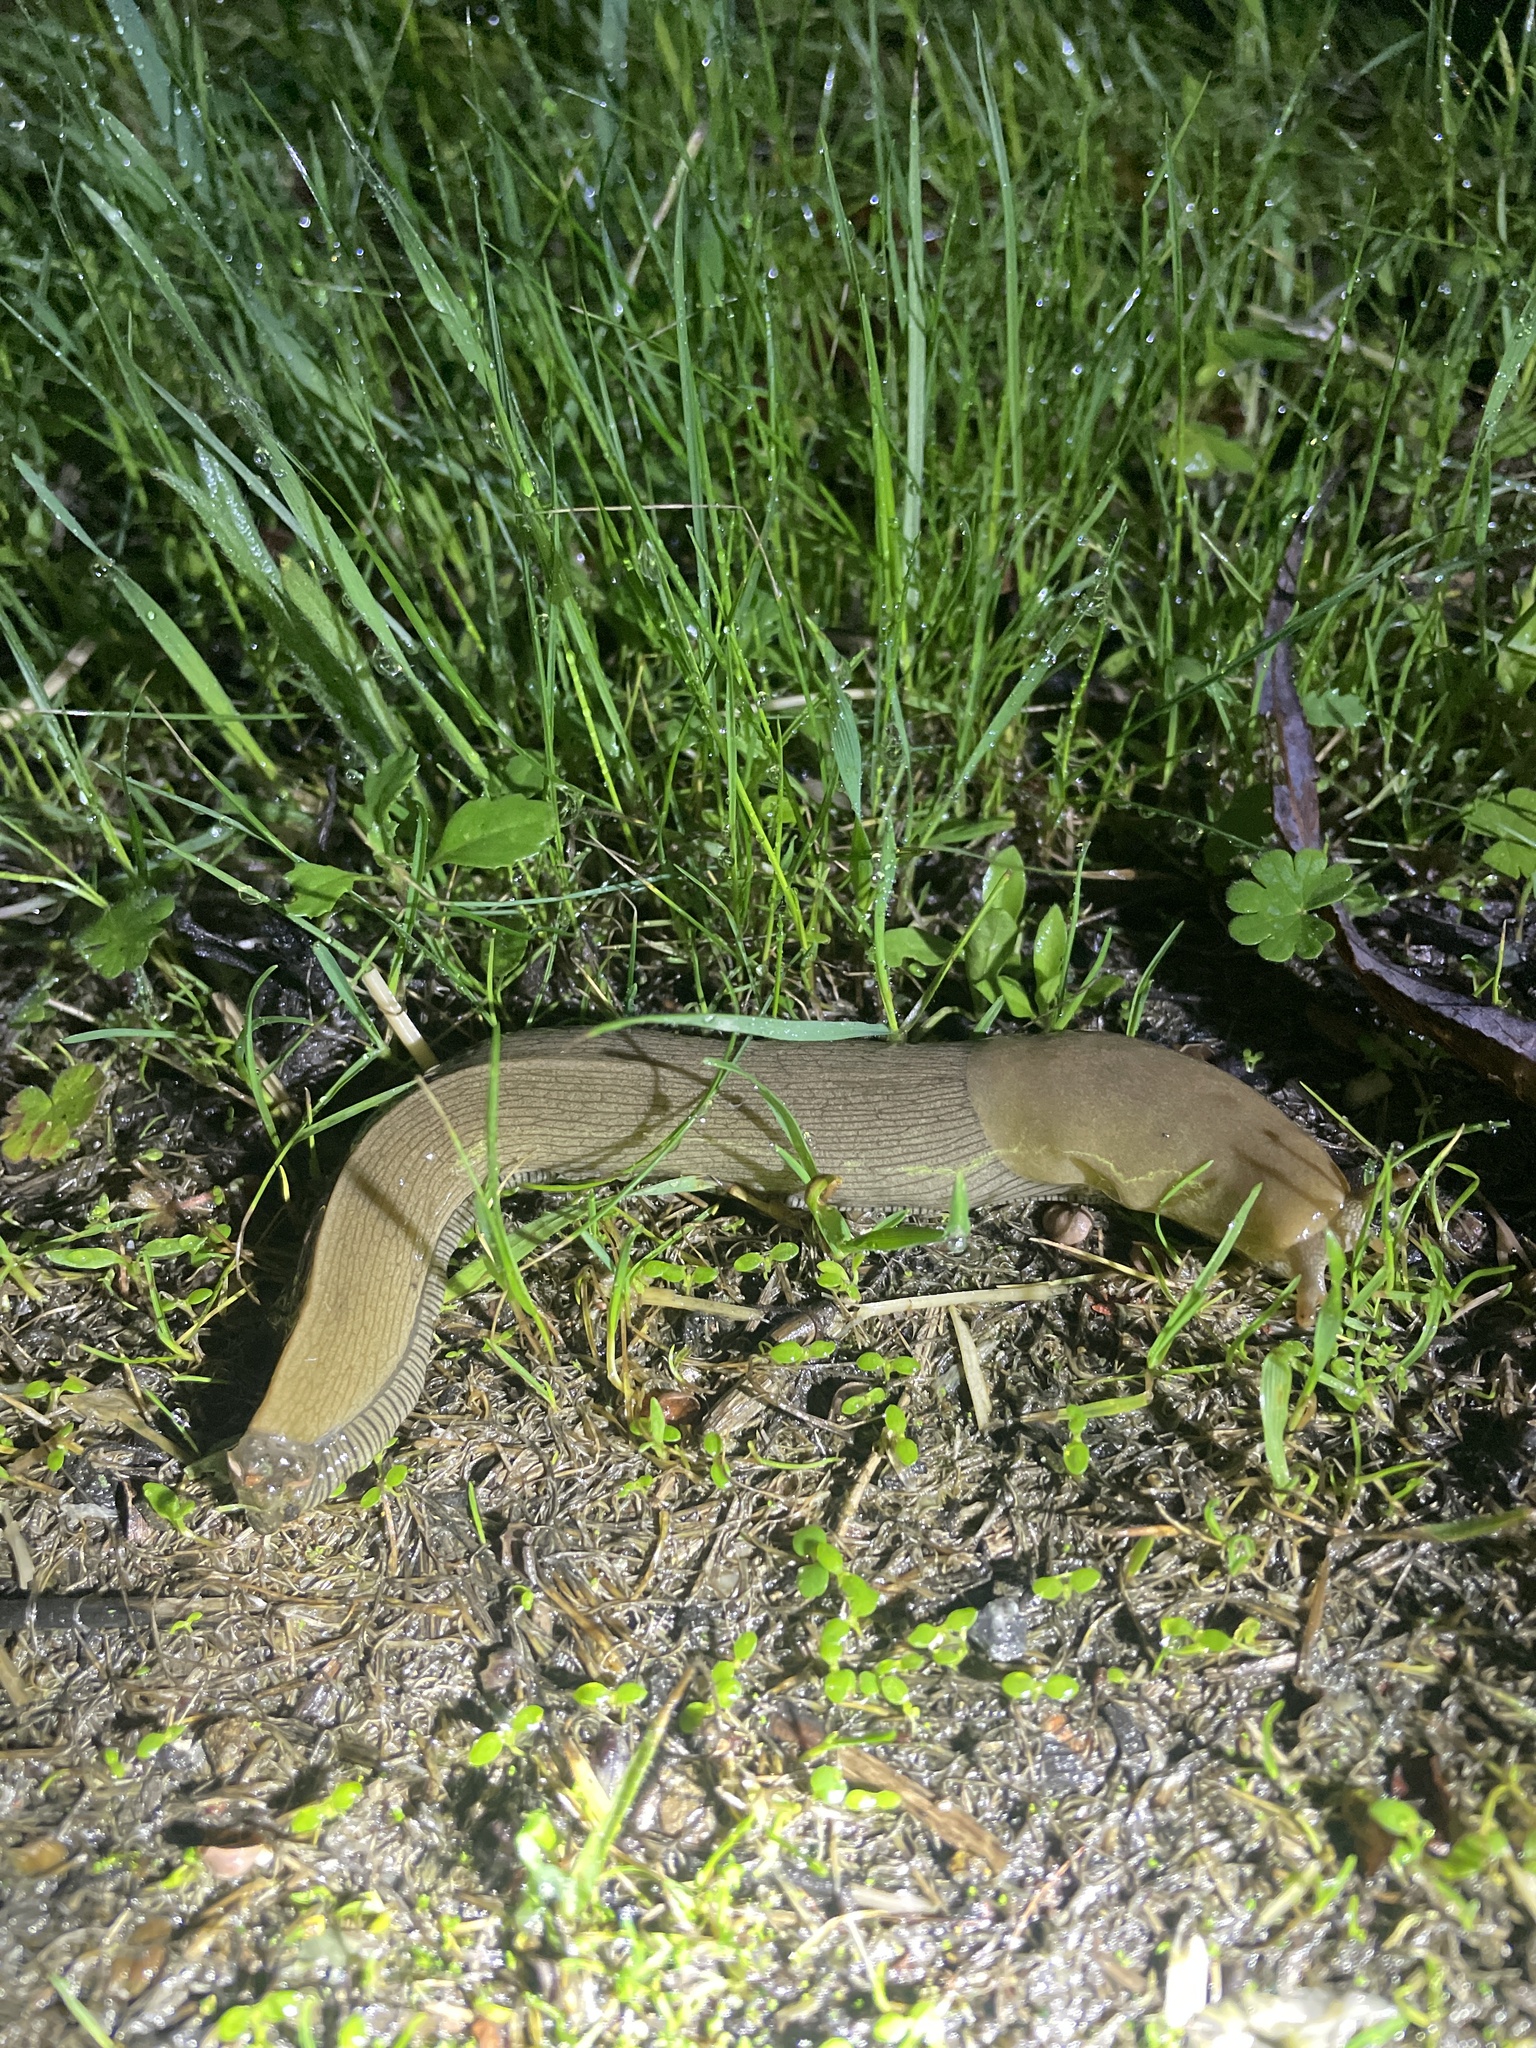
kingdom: Animalia
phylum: Mollusca
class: Gastropoda
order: Stylommatophora
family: Ariolimacidae
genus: Ariolimax
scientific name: Ariolimax buttoni
